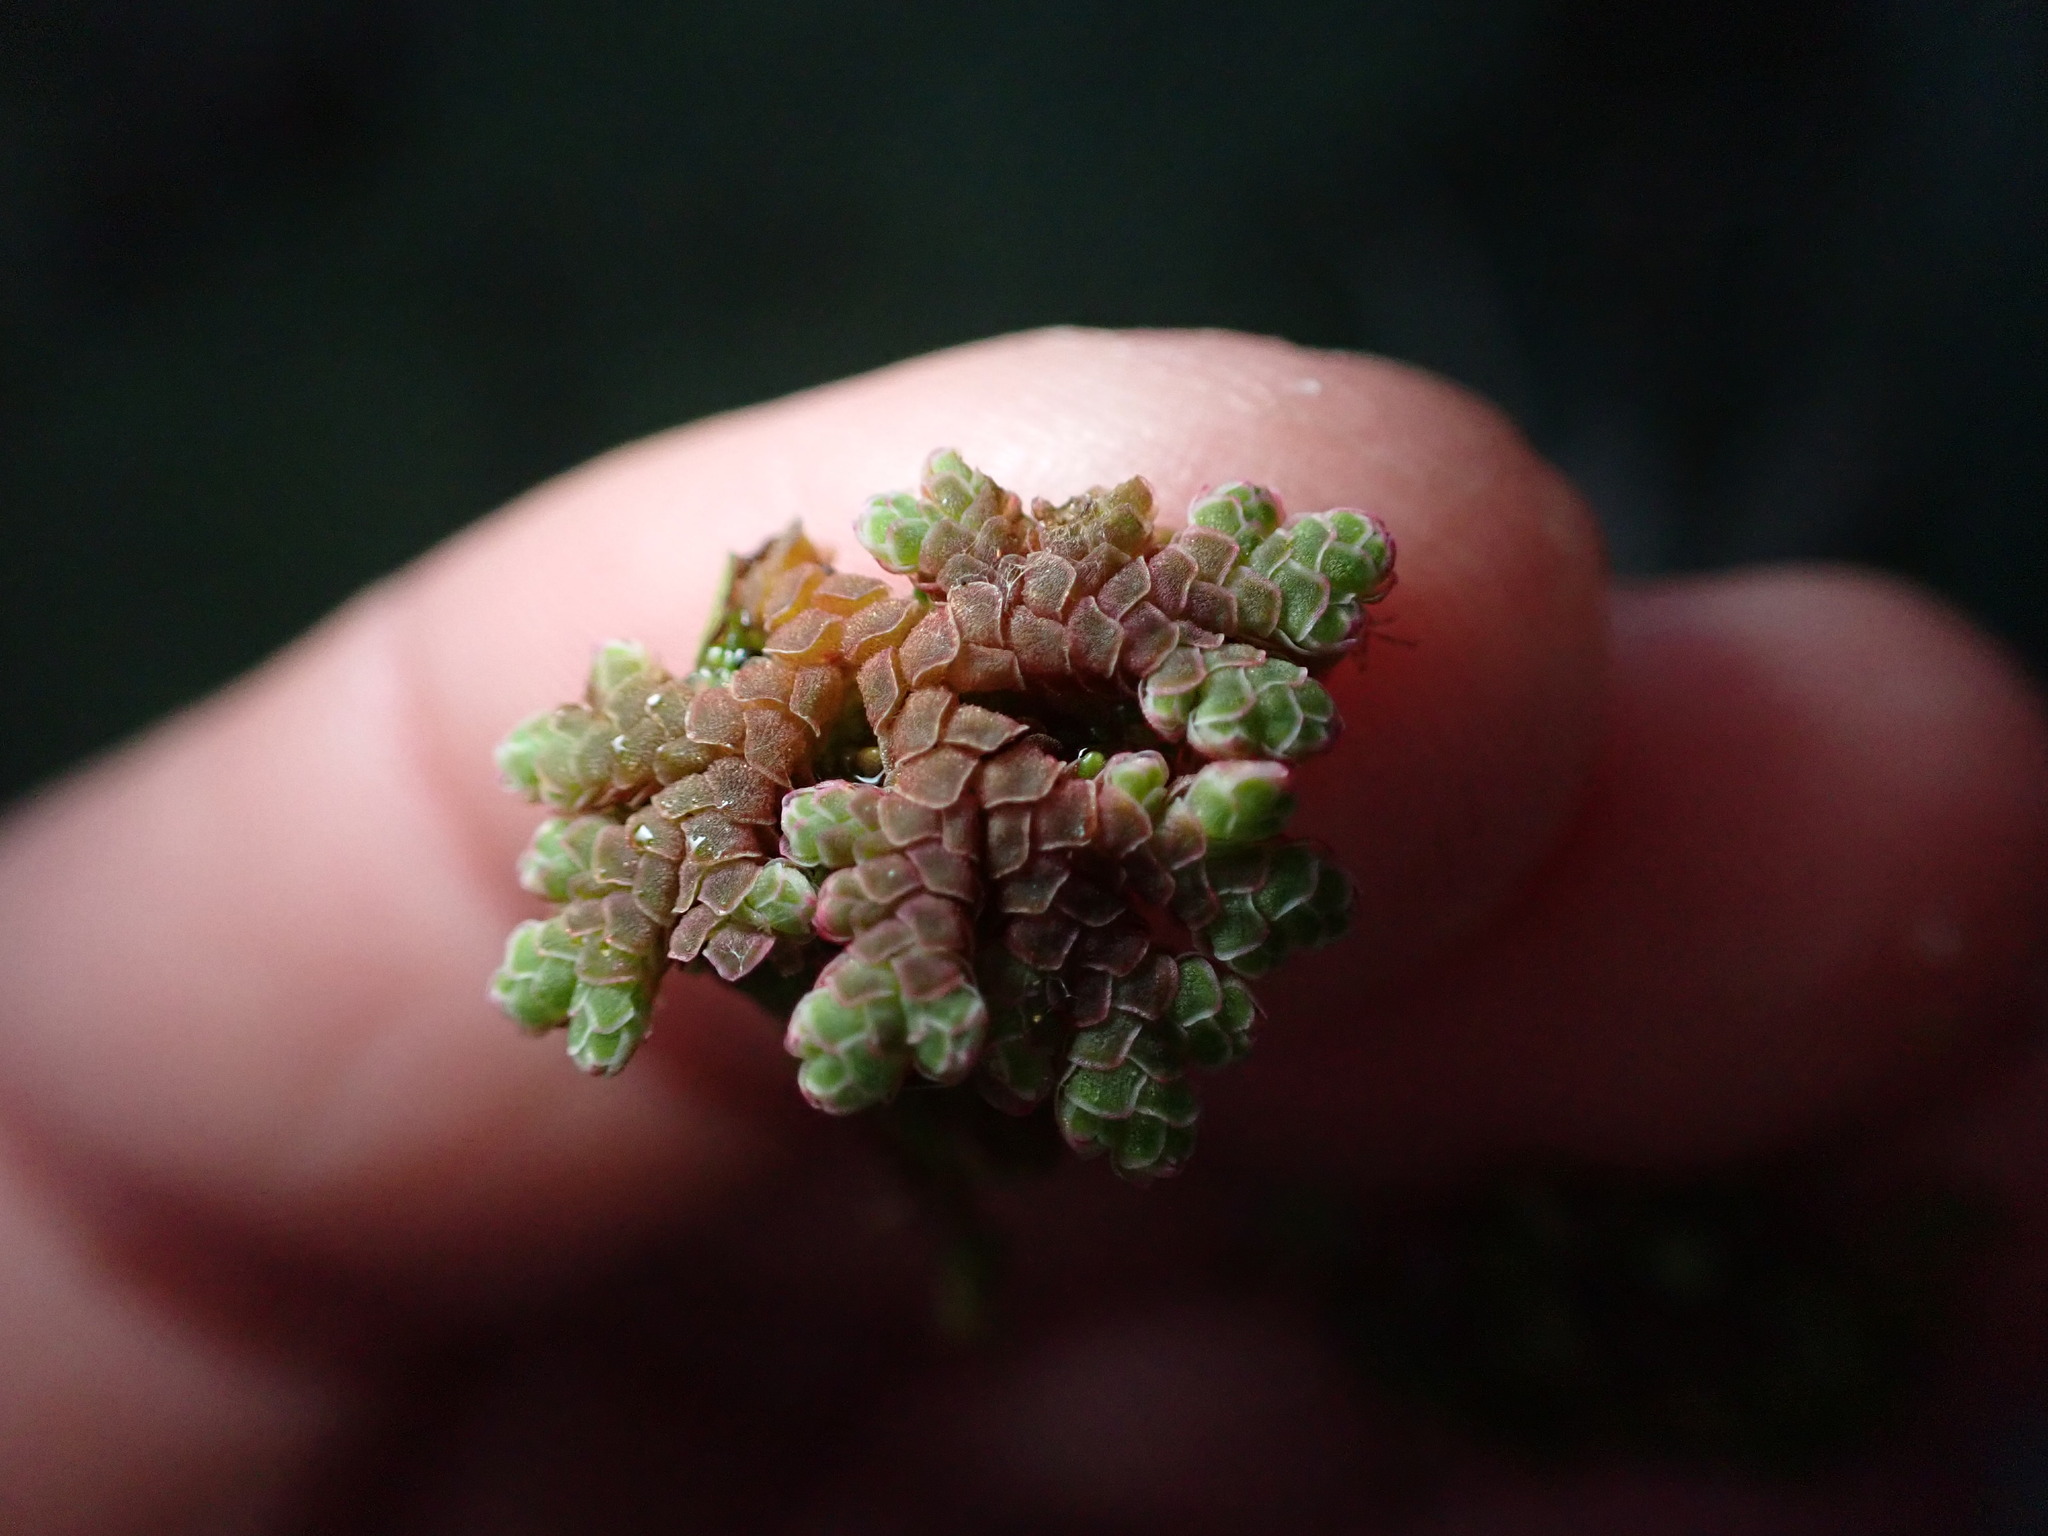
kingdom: Plantae
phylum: Tracheophyta
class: Polypodiopsida
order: Salviniales
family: Salviniaceae
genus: Azolla
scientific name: Azolla rubra
